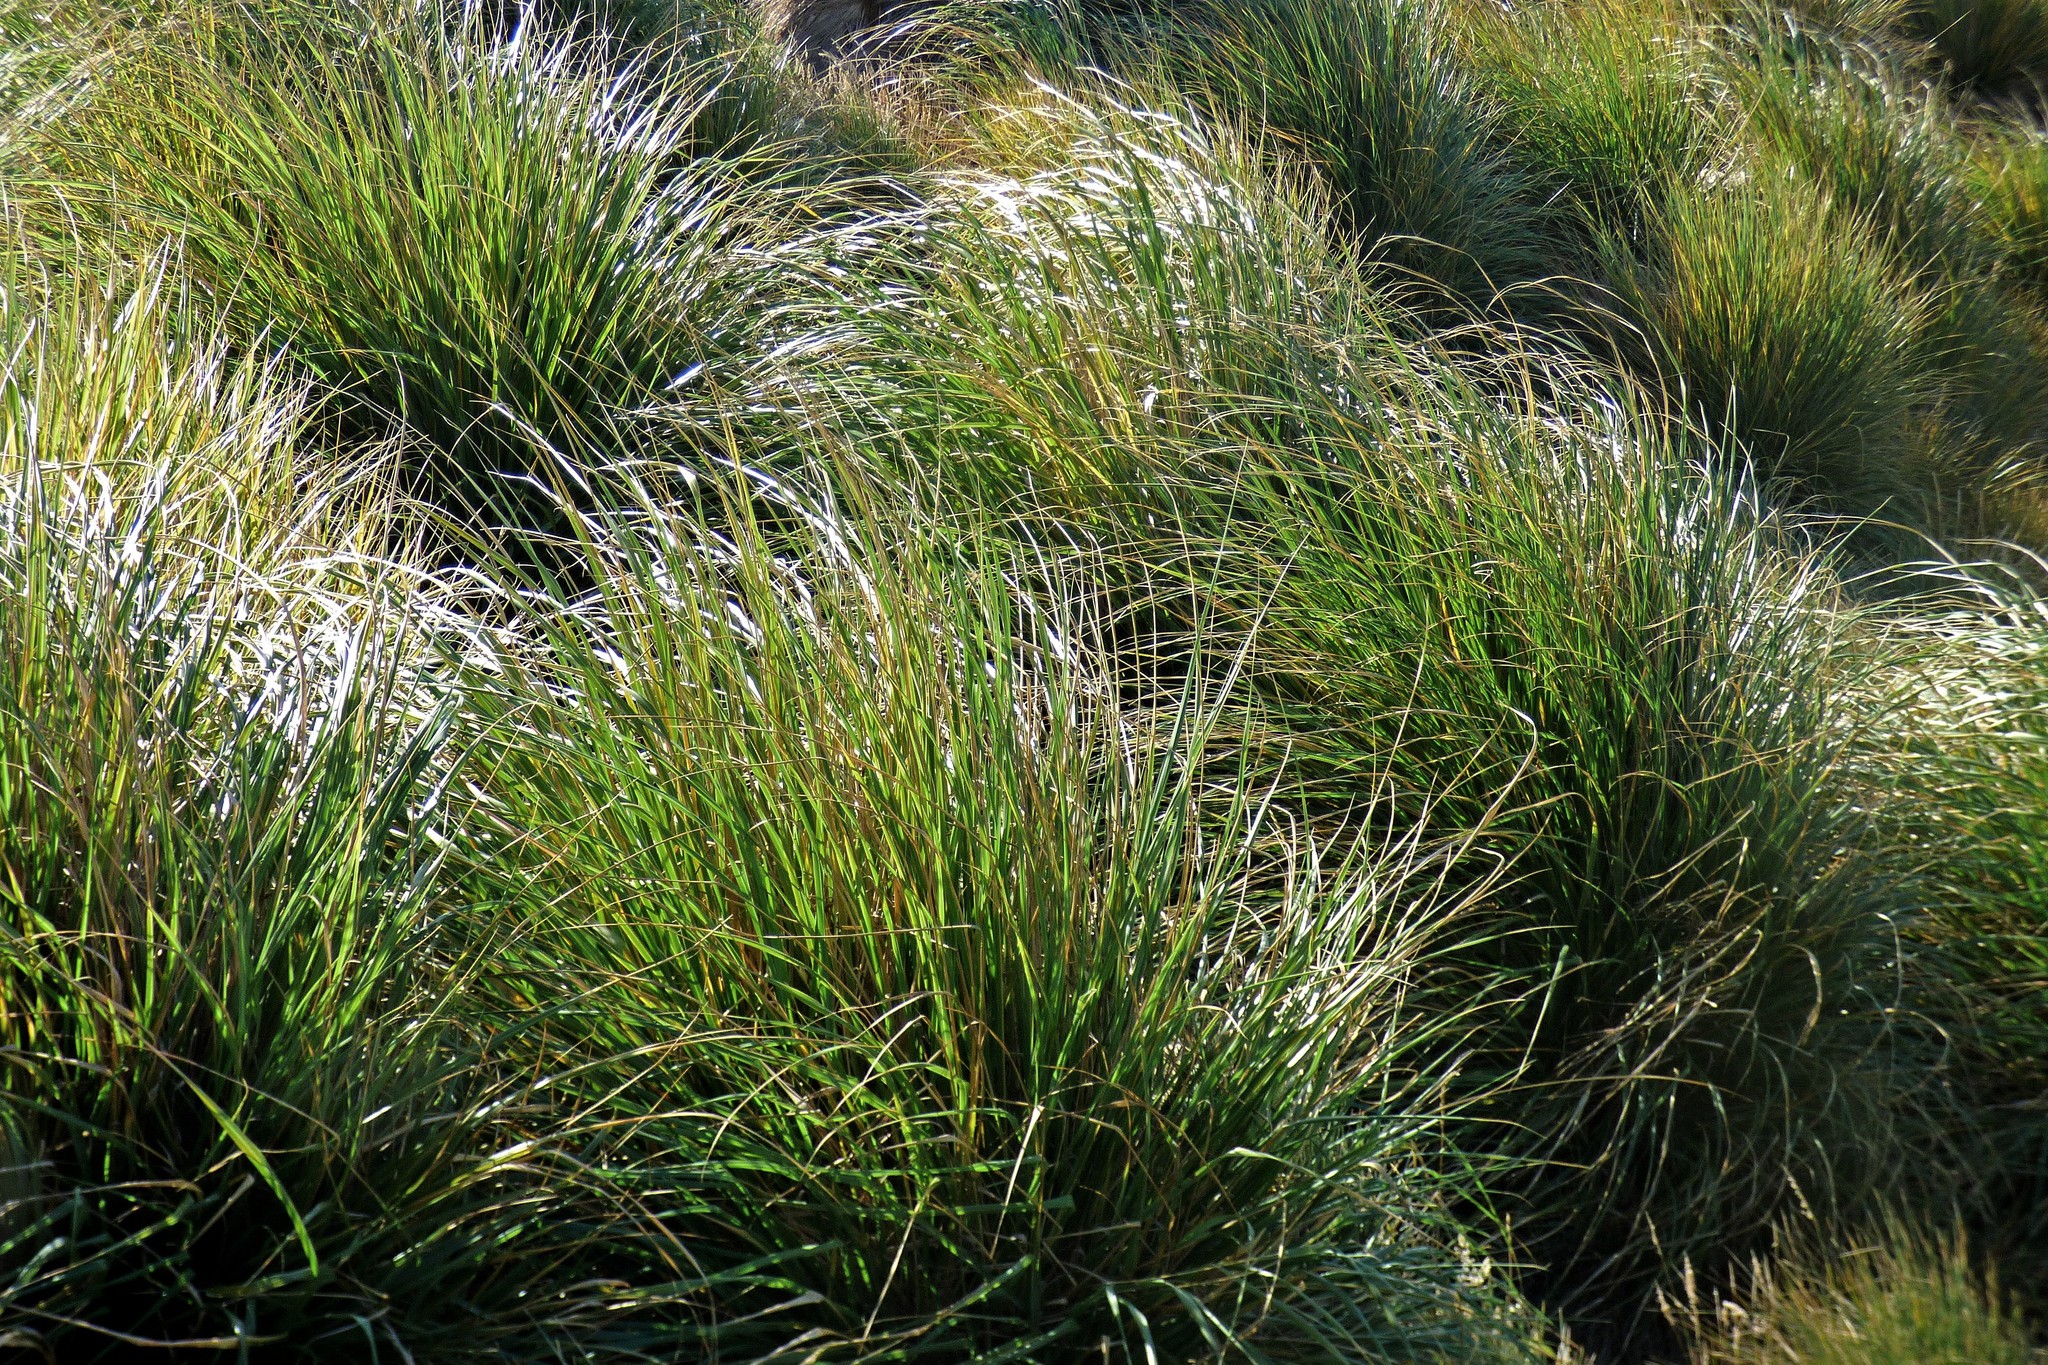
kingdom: Plantae
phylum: Tracheophyta
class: Liliopsida
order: Poales
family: Poaceae
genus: Poa
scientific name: Poa flabellata
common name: Tussac-grass
